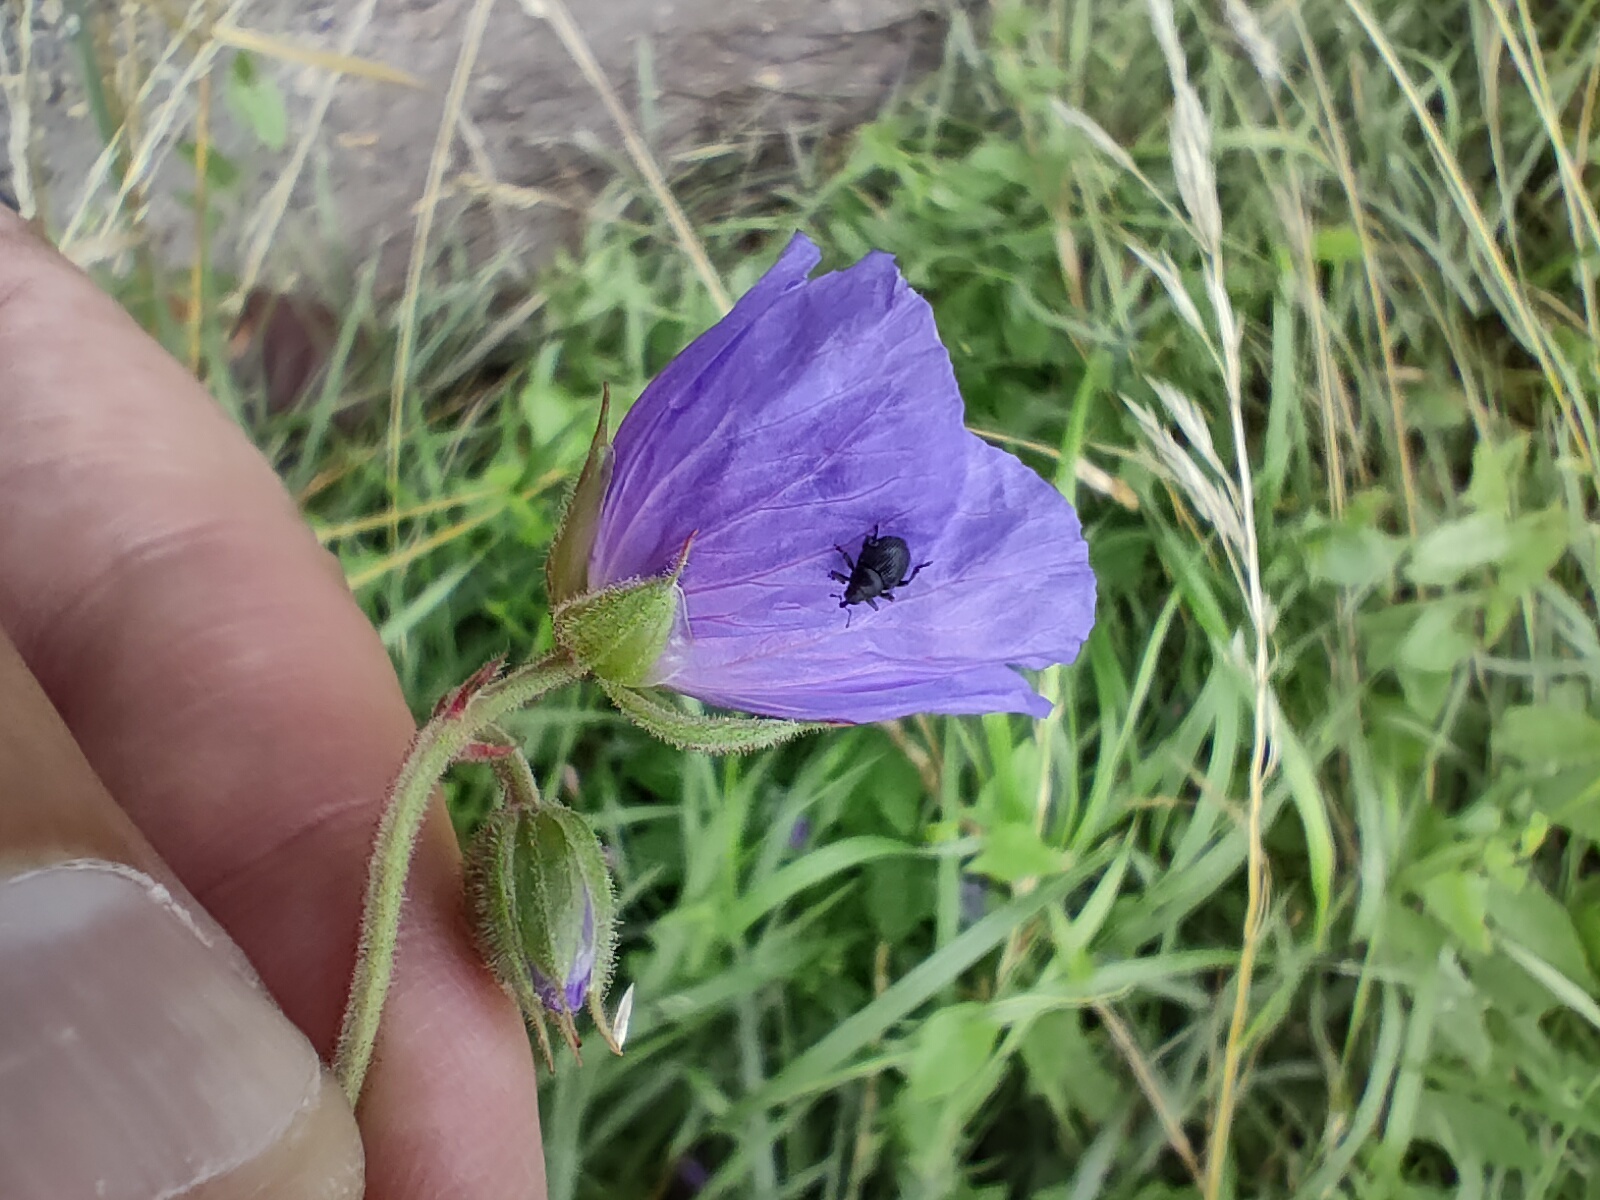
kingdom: Animalia
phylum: Arthropoda
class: Insecta
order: Coleoptera
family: Curculionidae
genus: Zacladus
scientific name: Zacladus geranii
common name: Meadow cranesbill weevil
